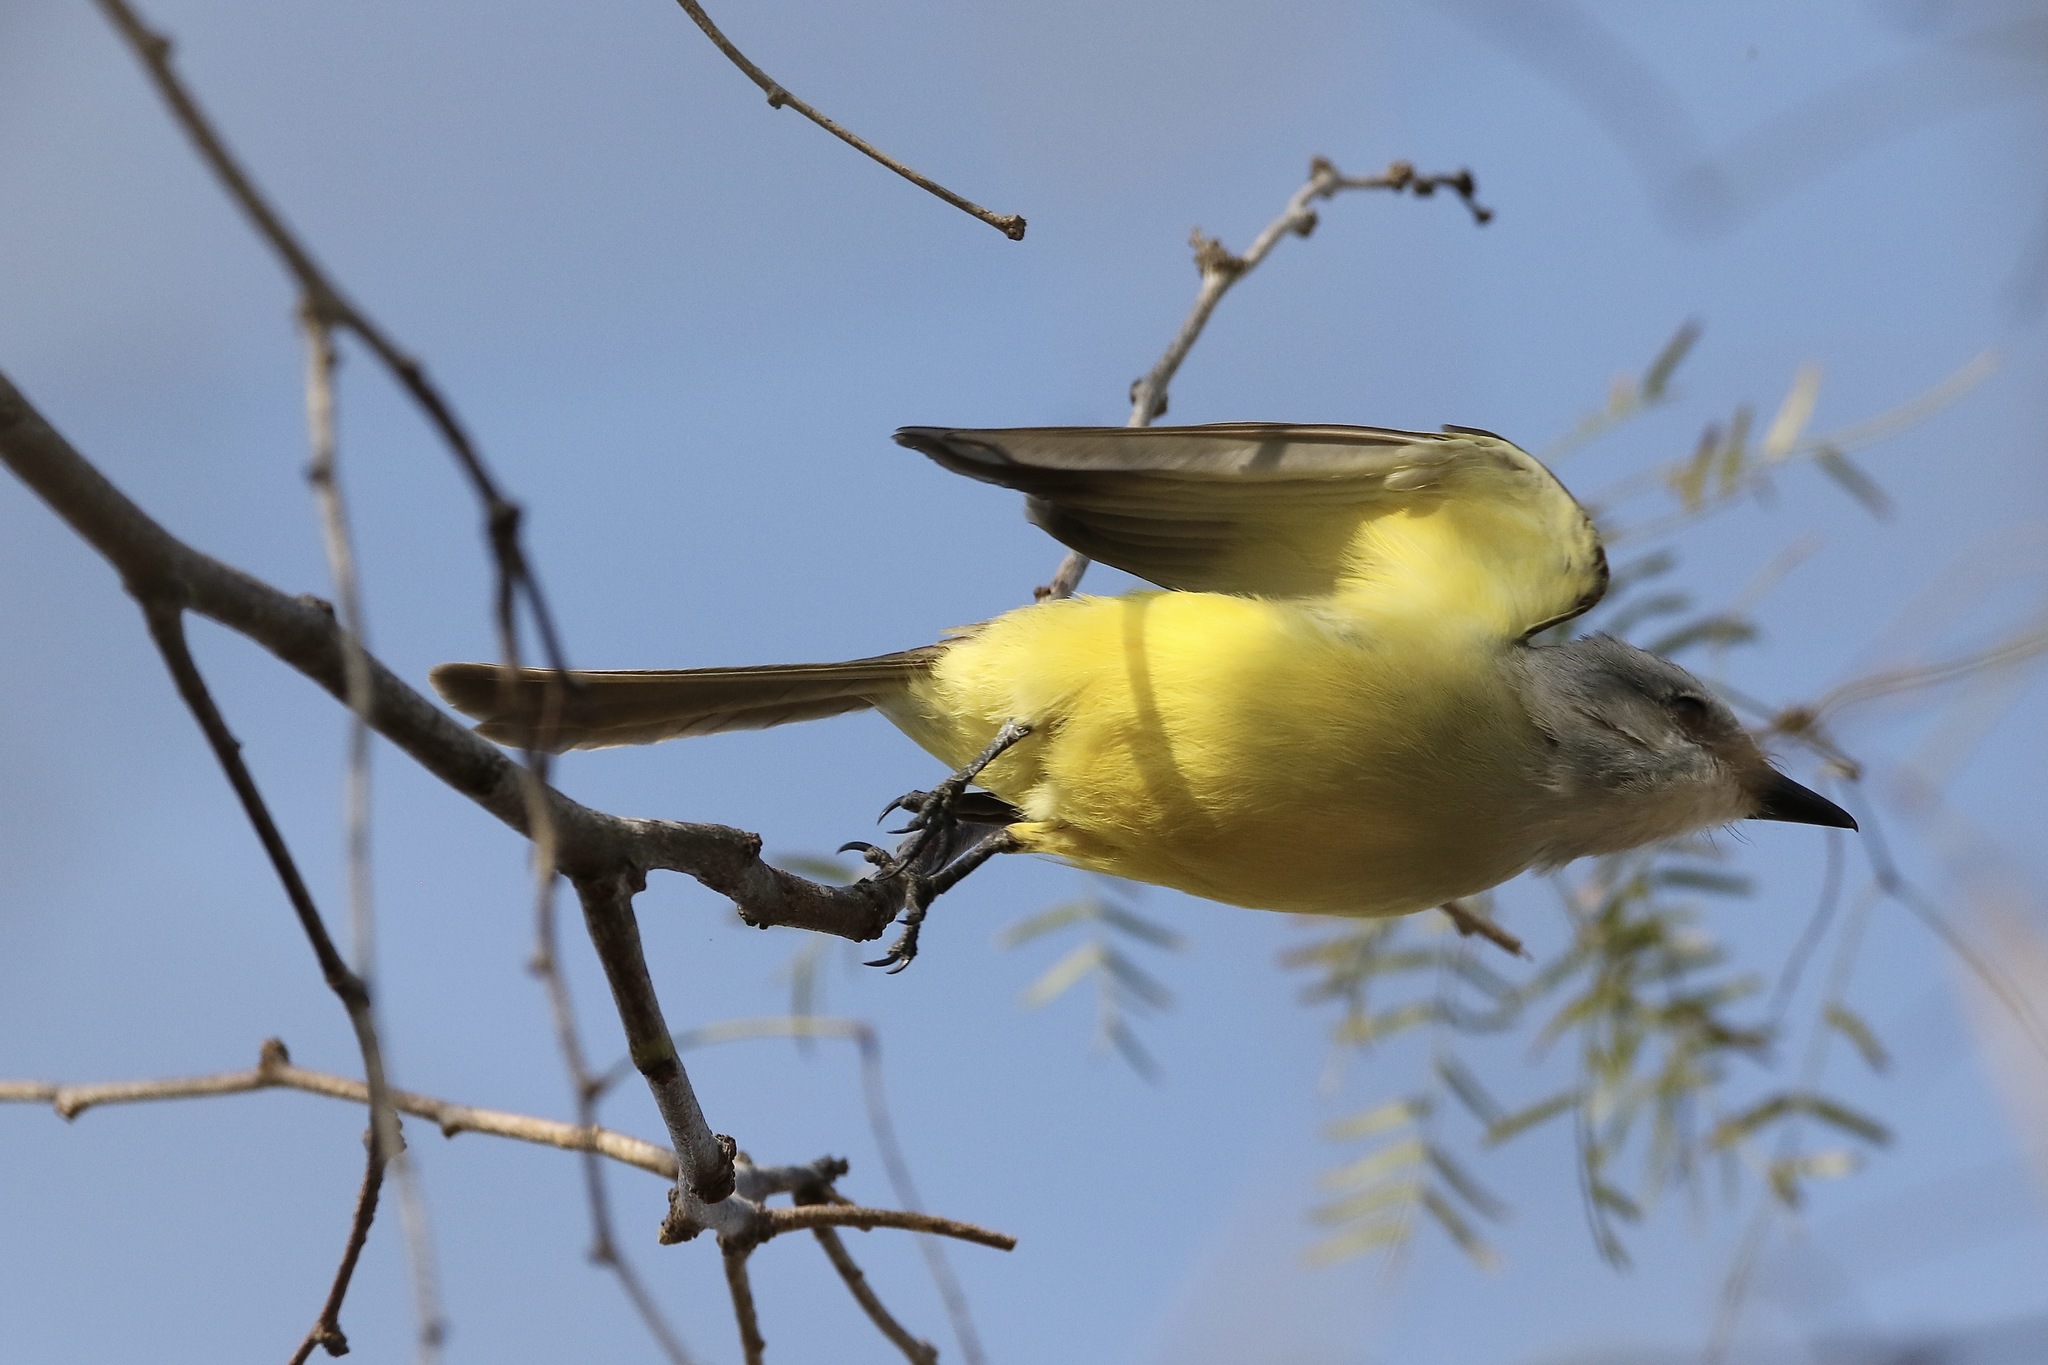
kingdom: Animalia
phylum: Chordata
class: Aves
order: Passeriformes
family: Tyrannidae
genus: Tyrannus
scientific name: Tyrannus couchii
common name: Couch's kingbird
